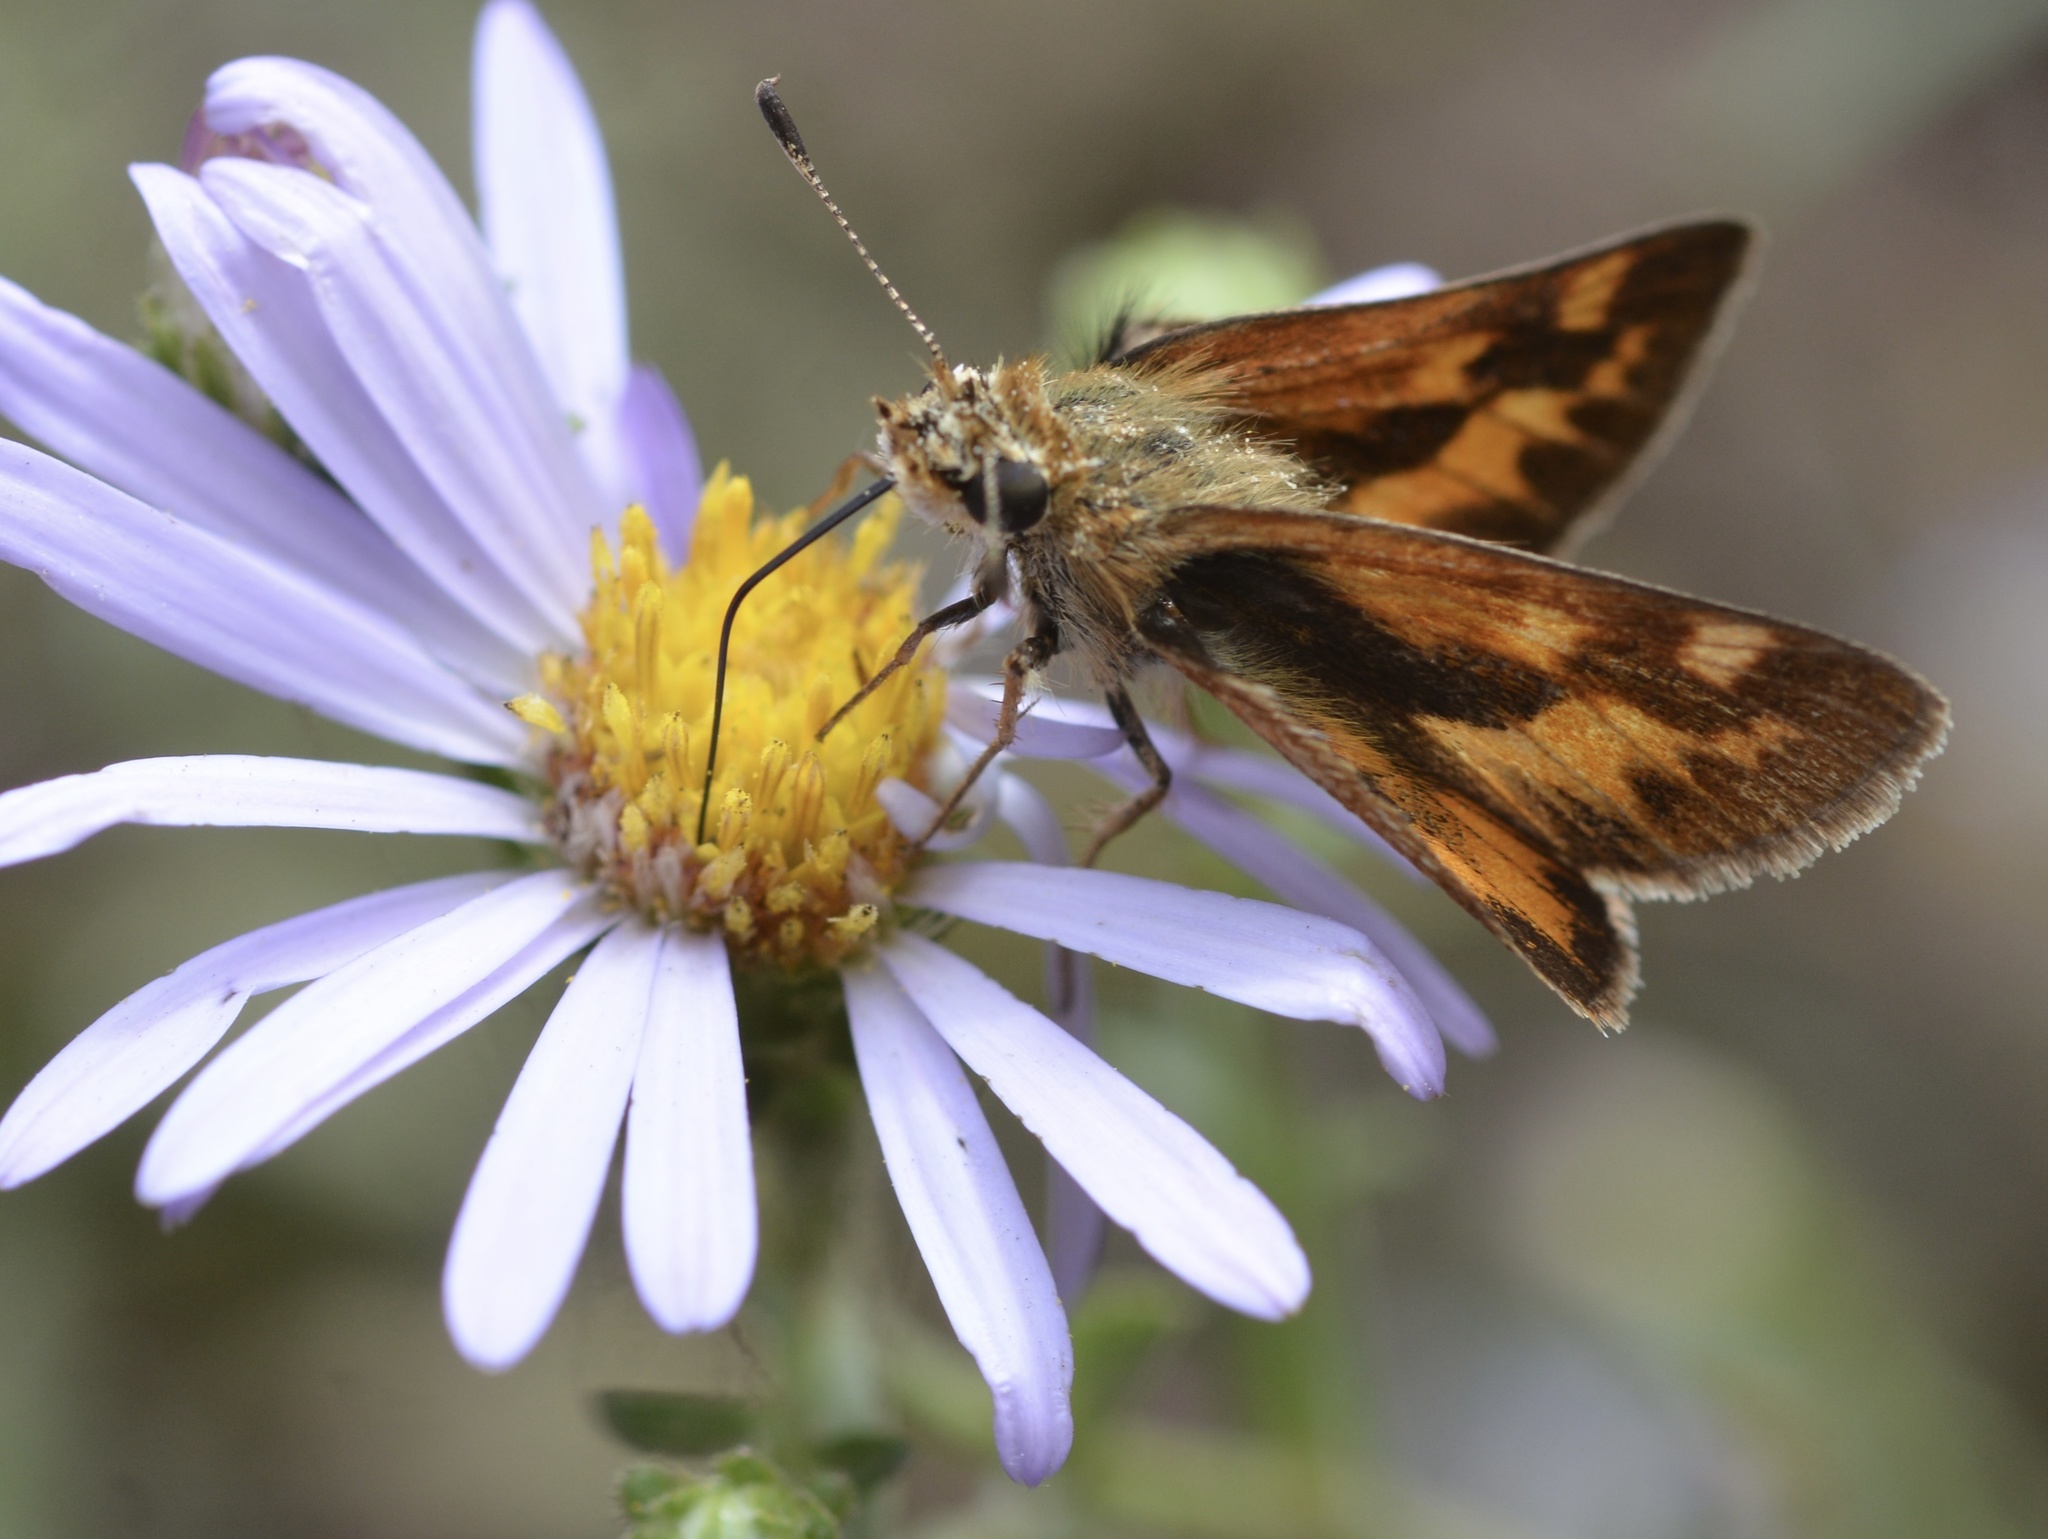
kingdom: Animalia
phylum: Arthropoda
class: Insecta
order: Lepidoptera
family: Hesperiidae
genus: Ochlodes
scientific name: Ochlodes sylvanoides
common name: Woodland skipper
